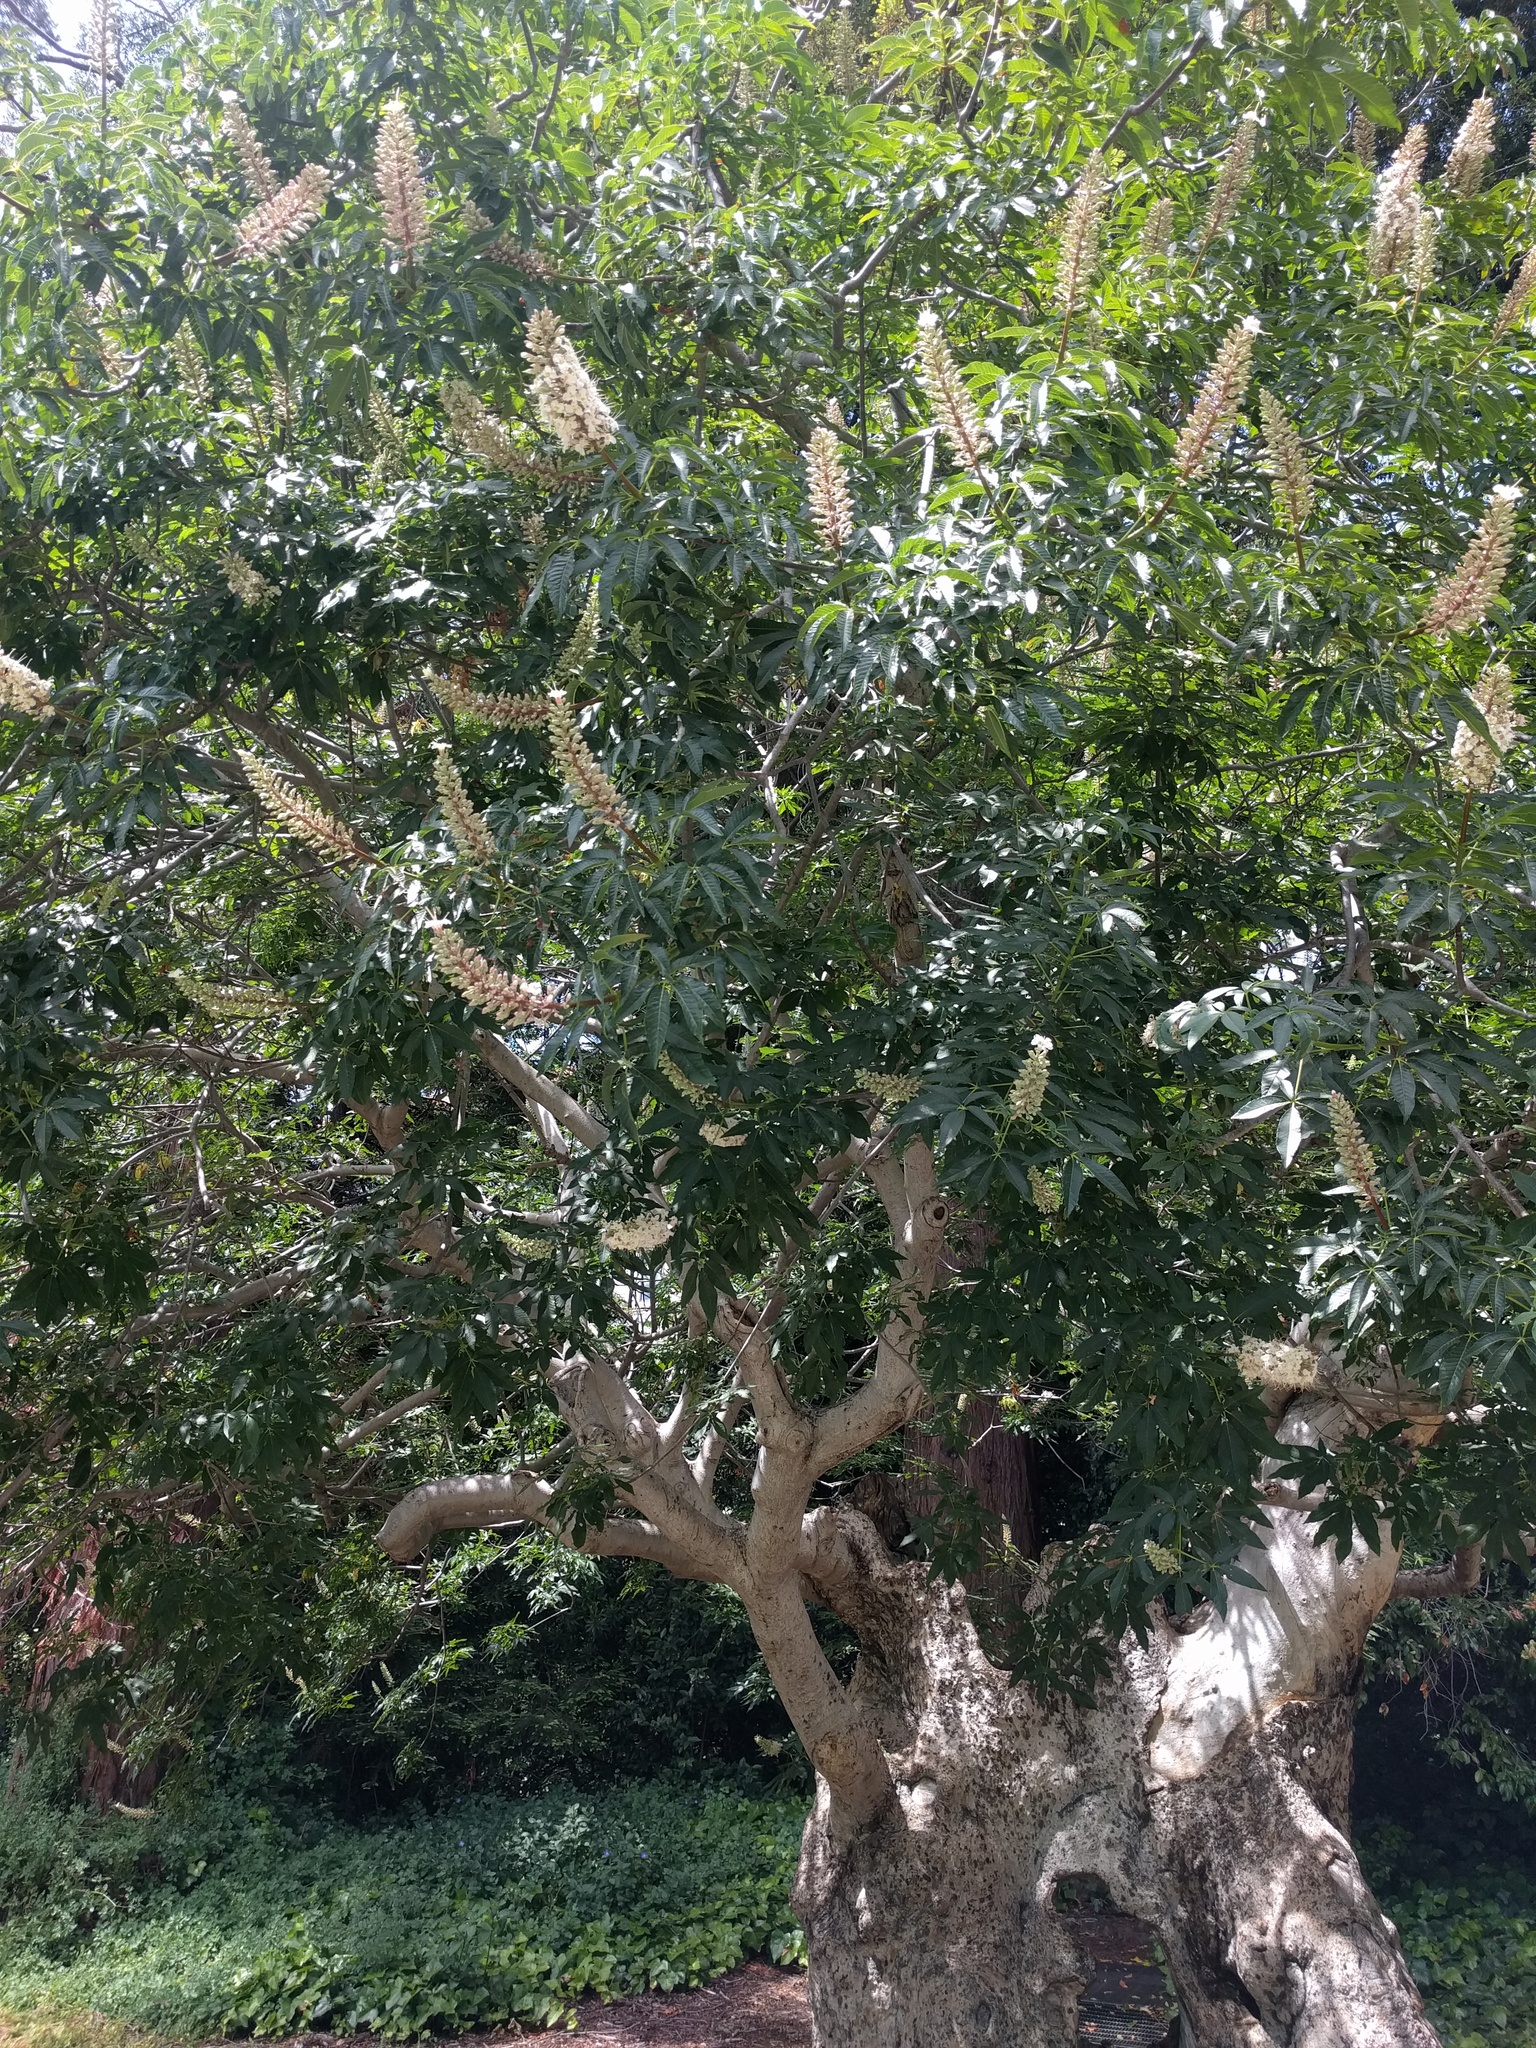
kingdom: Plantae
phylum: Tracheophyta
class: Magnoliopsida
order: Sapindales
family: Sapindaceae
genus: Aesculus
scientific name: Aesculus californica
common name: California buckeye
